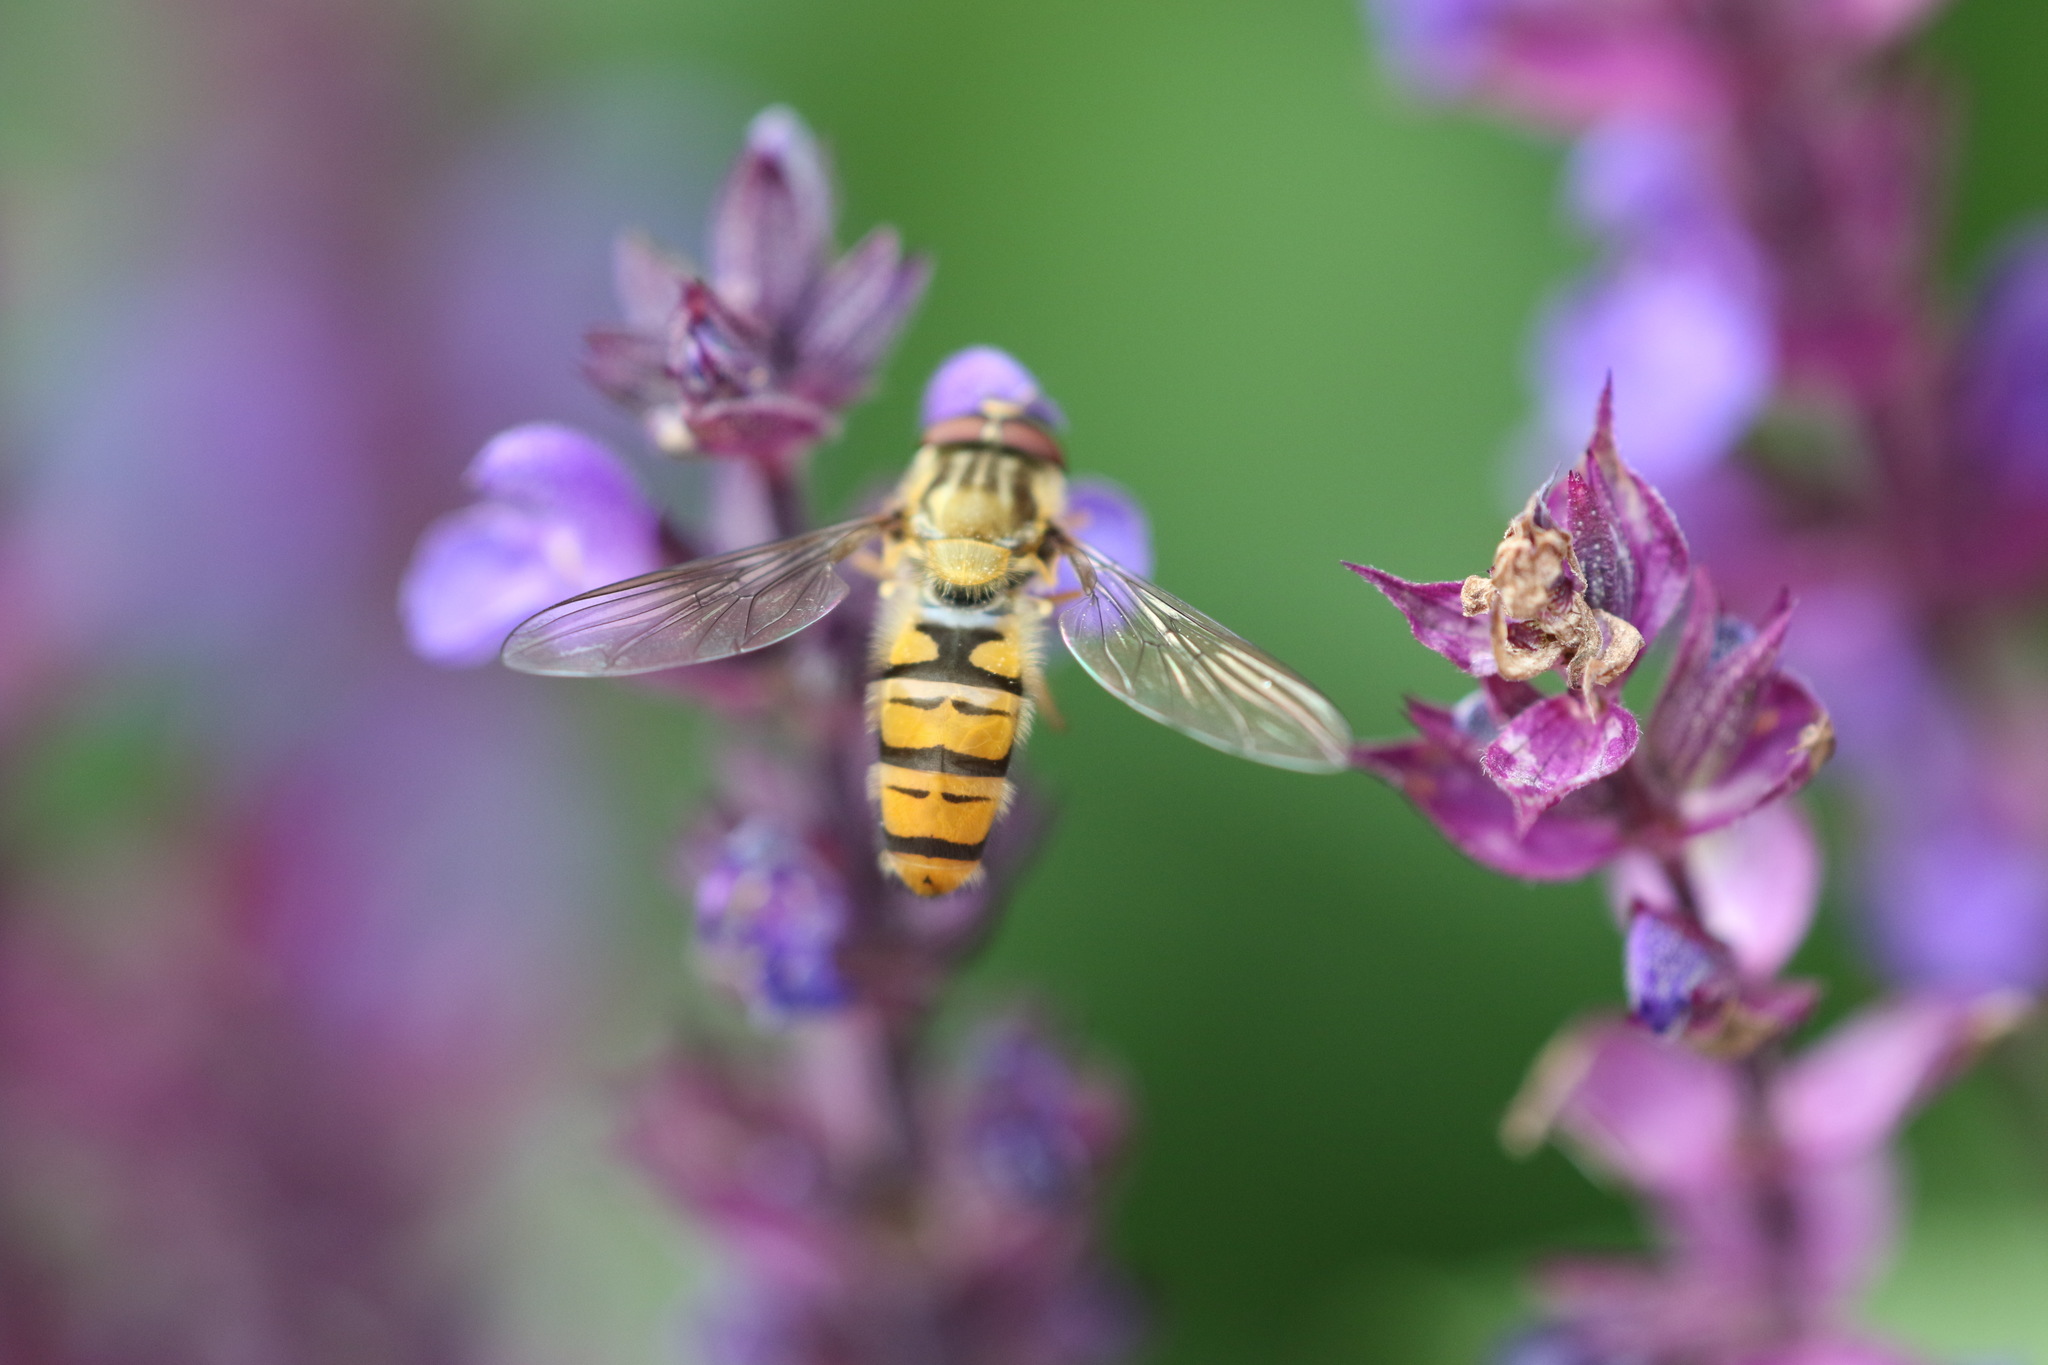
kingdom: Animalia
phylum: Arthropoda
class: Insecta
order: Diptera
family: Syrphidae
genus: Episyrphus
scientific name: Episyrphus balteatus
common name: Marmalade hoverfly
